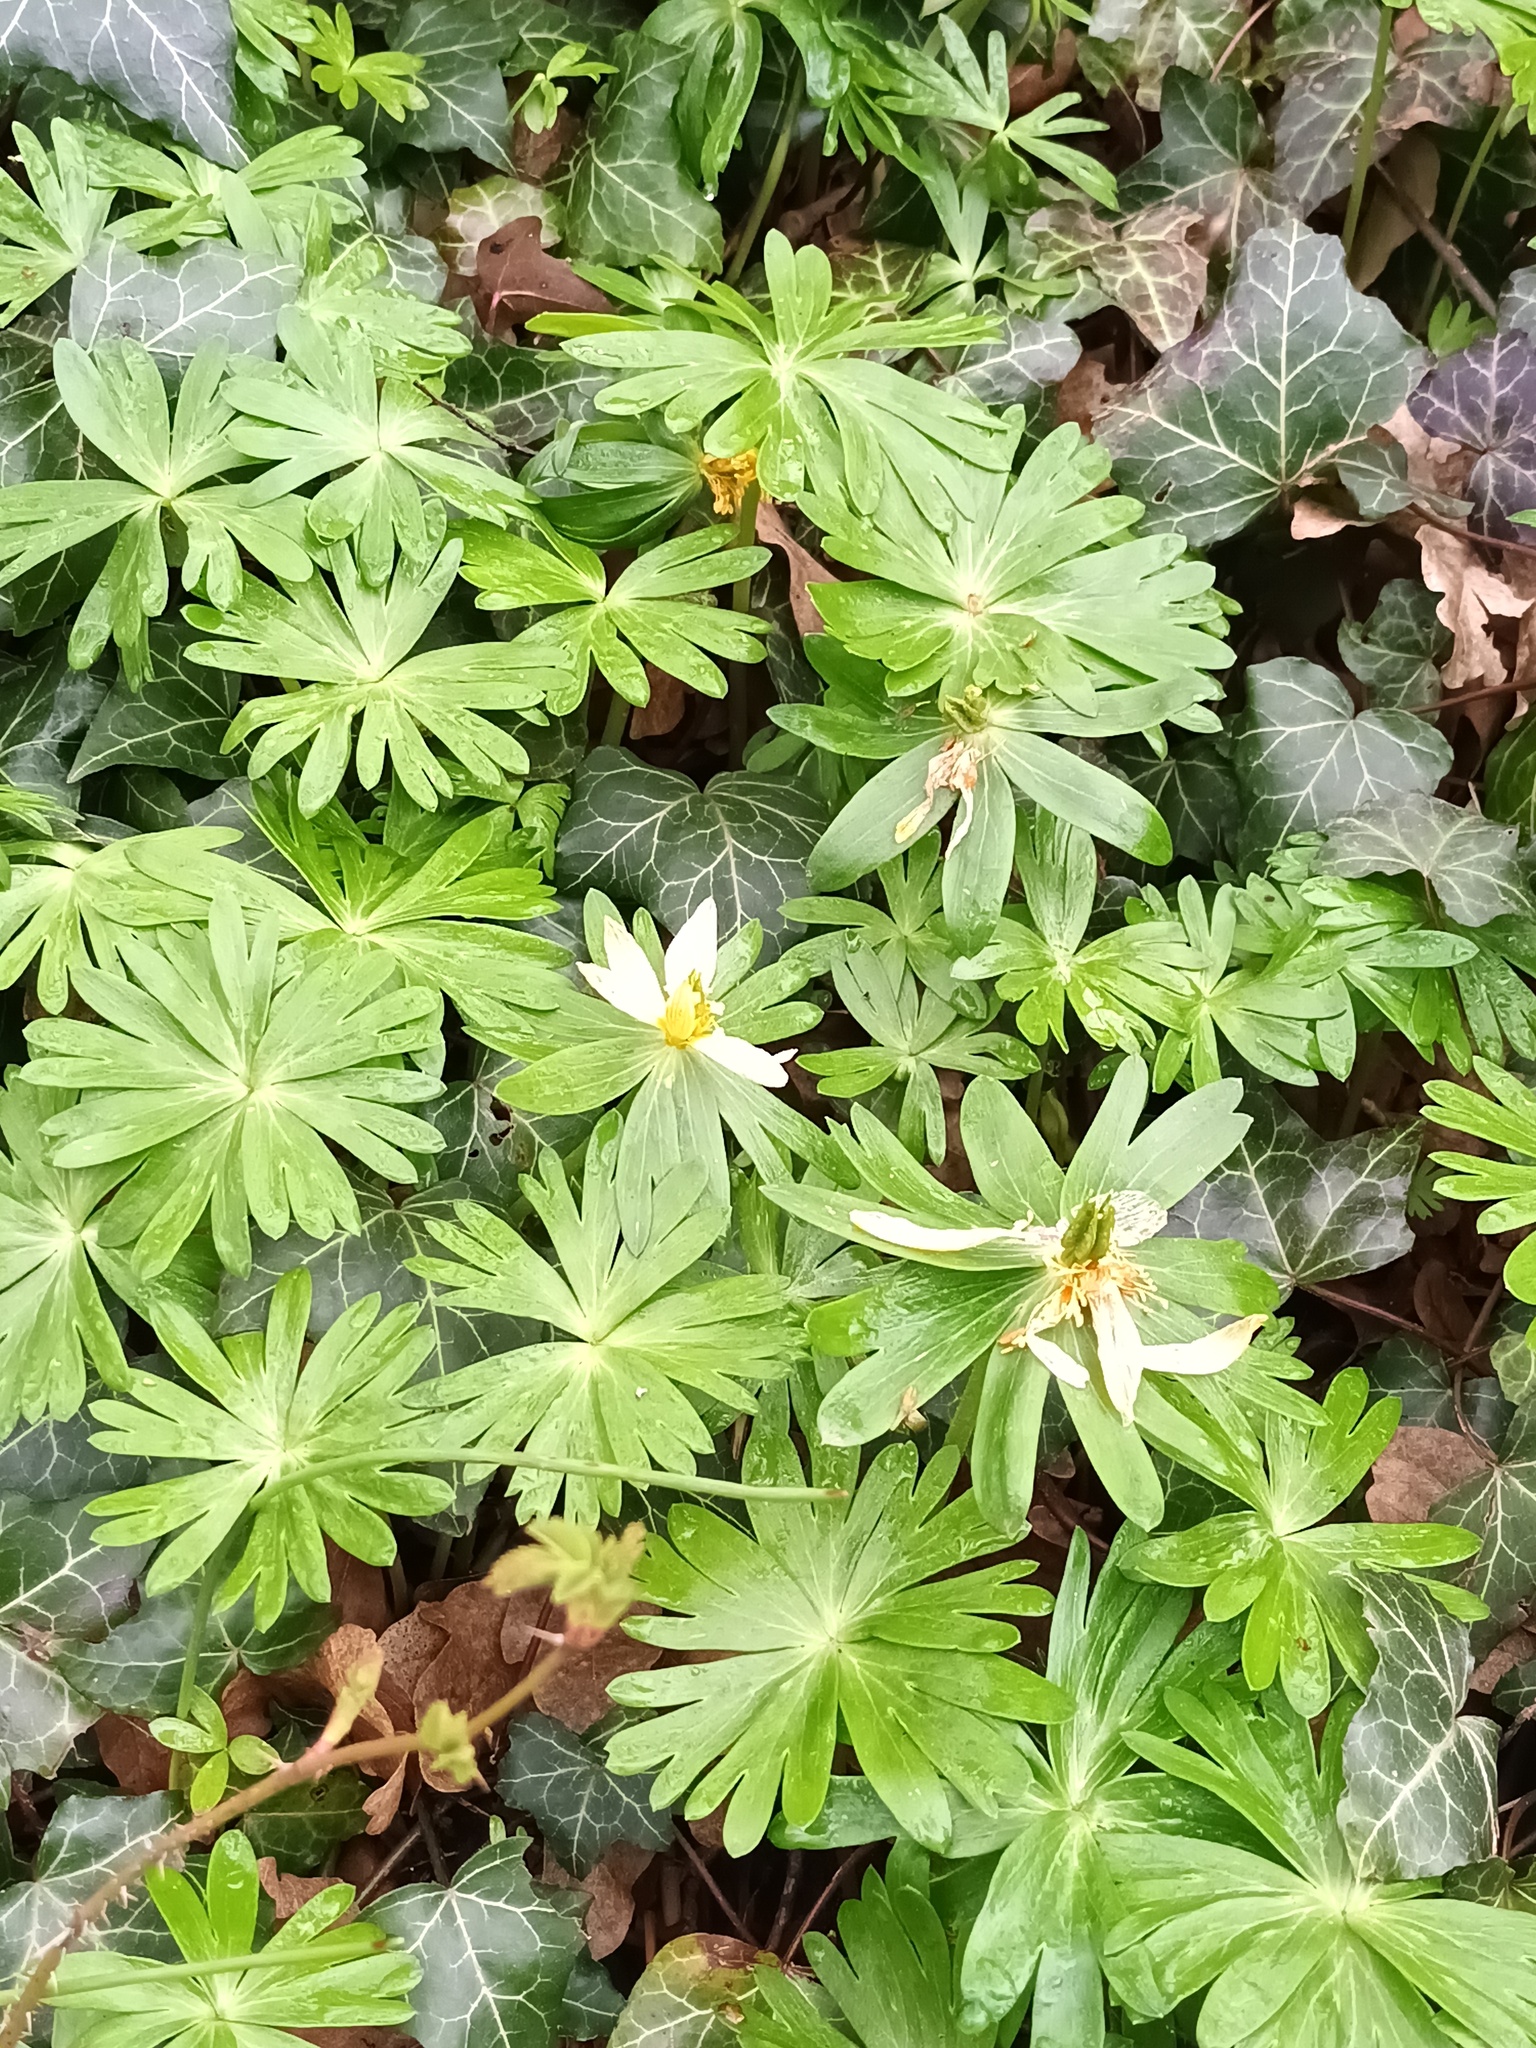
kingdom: Plantae
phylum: Tracheophyta
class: Magnoliopsida
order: Ranunculales
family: Ranunculaceae
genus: Eranthis
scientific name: Eranthis hyemalis
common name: Winter aconite
